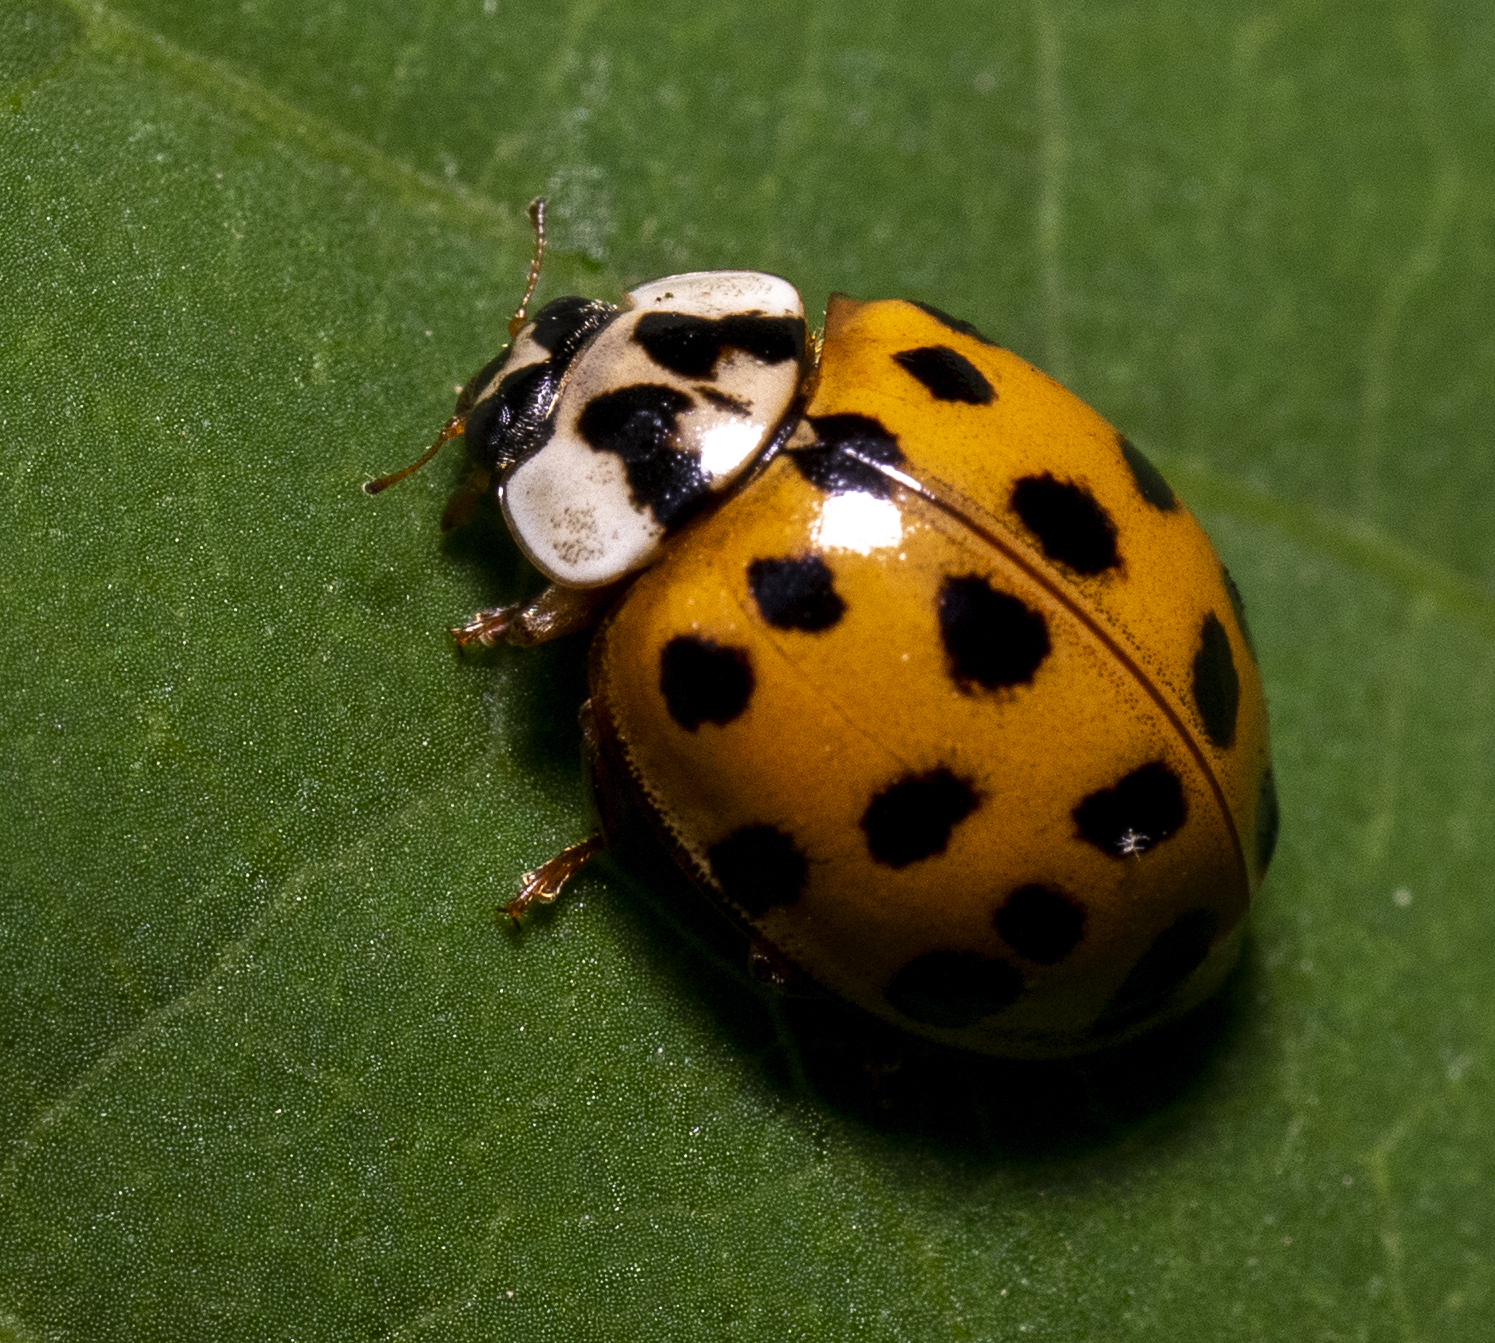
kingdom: Animalia
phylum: Arthropoda
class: Insecta
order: Coleoptera
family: Coccinellidae
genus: Harmonia
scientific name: Harmonia axyridis
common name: Harlequin ladybird
